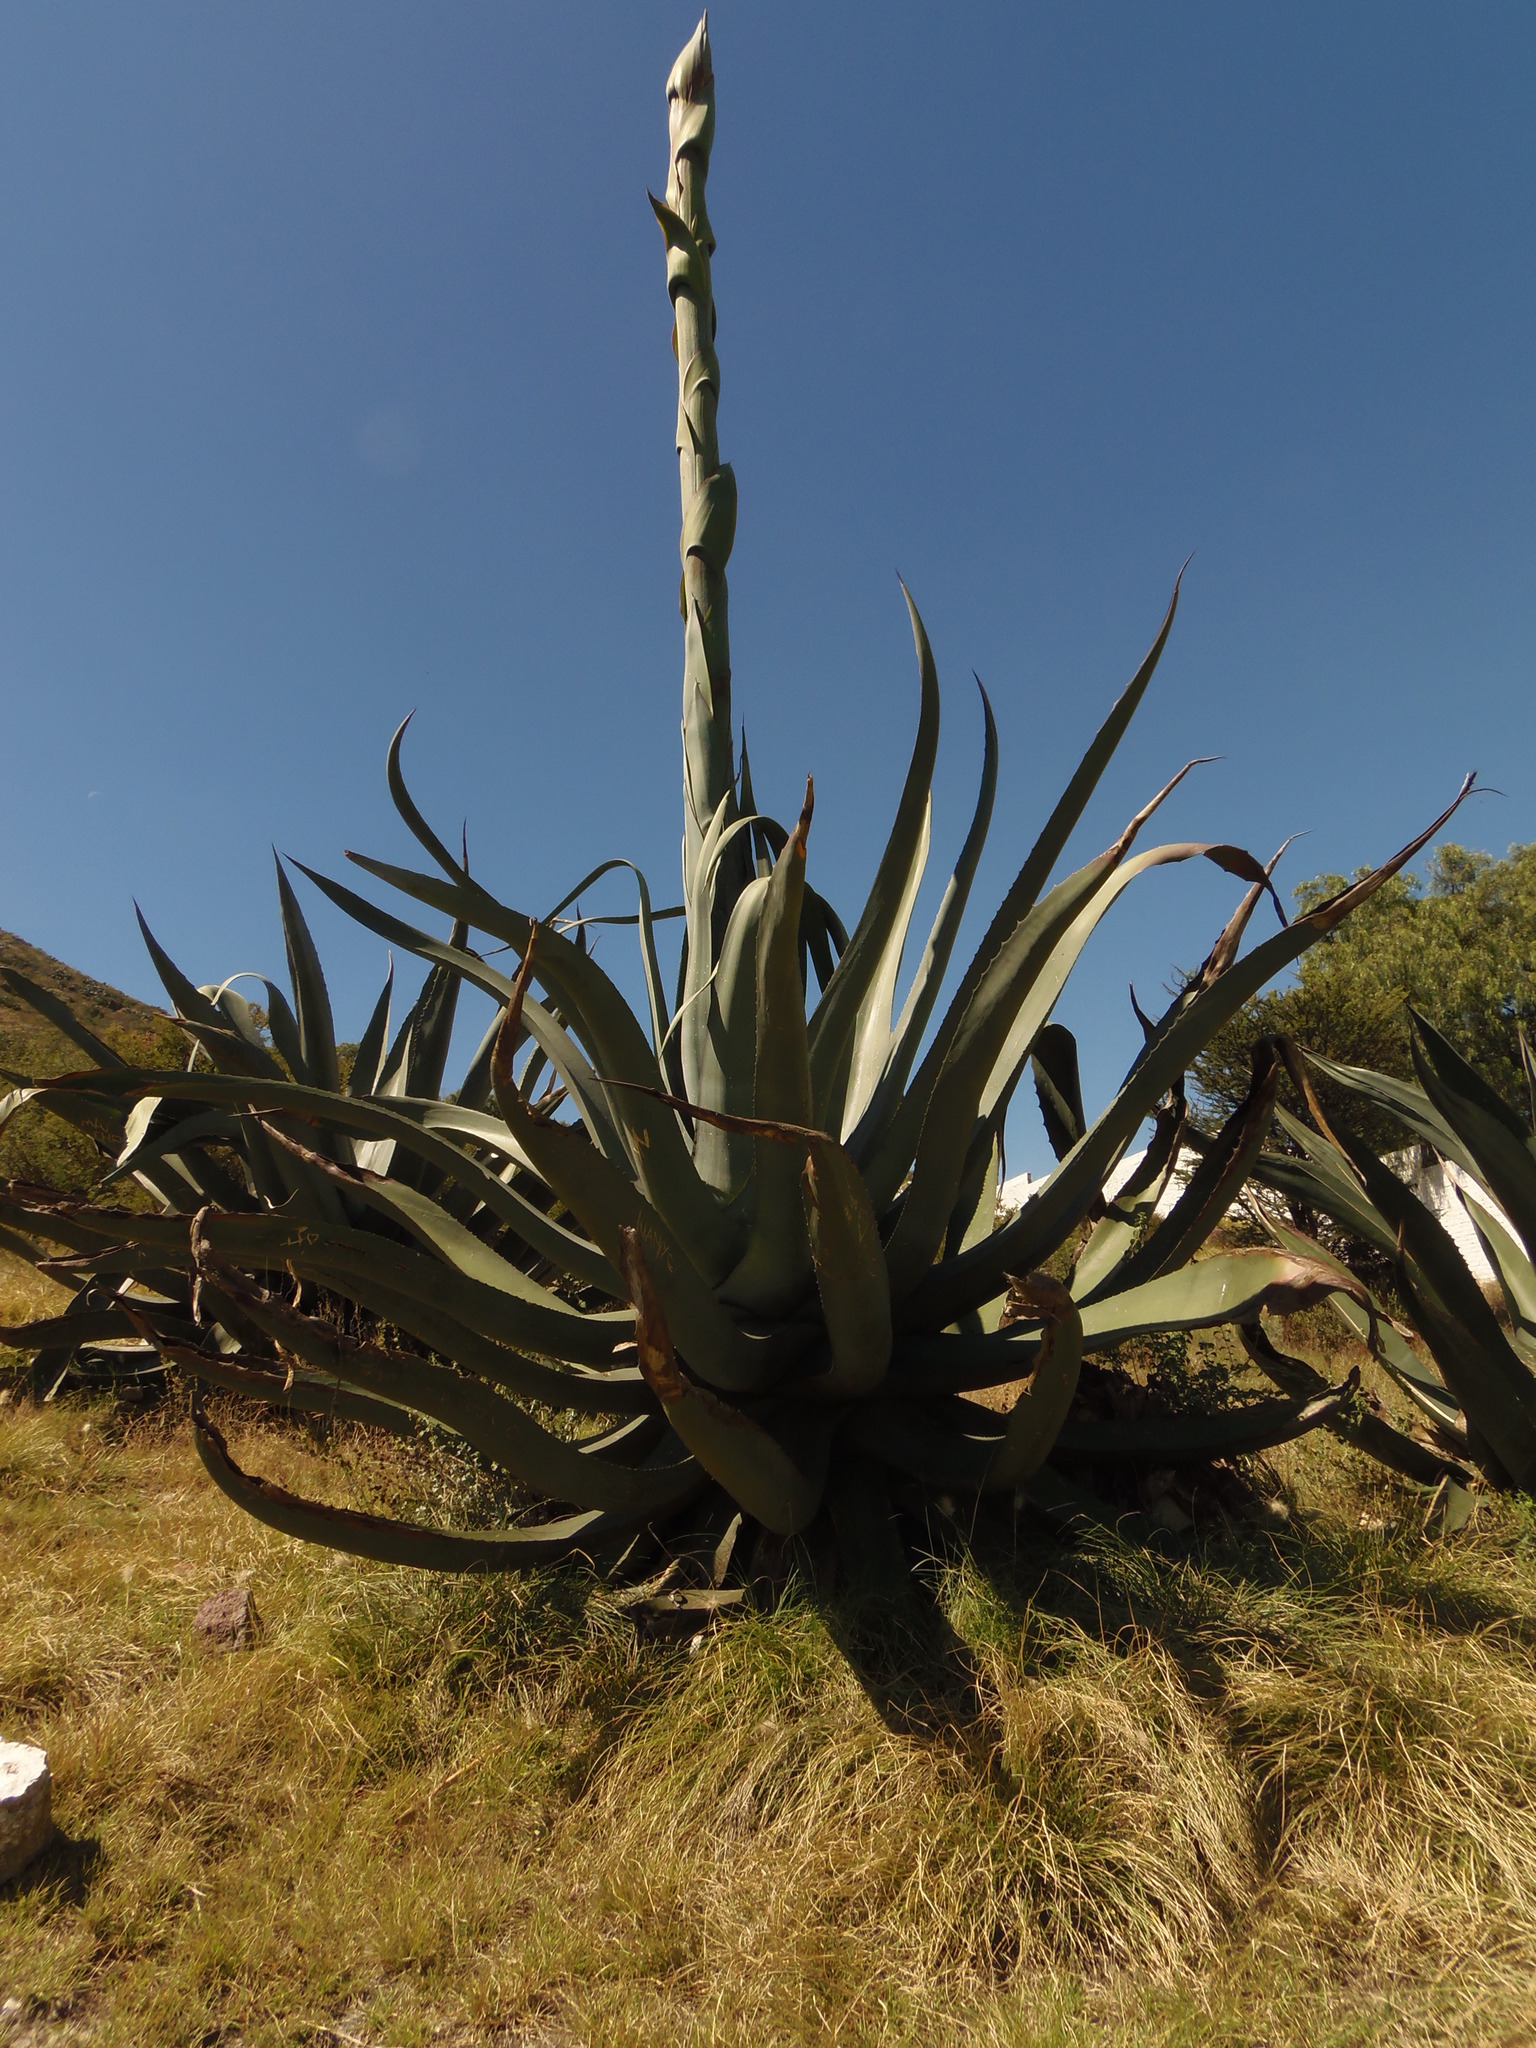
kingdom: Plantae
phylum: Tracheophyta
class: Liliopsida
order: Asparagales
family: Asparagaceae
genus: Agave
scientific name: Agave salmiana
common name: Pulque agave
